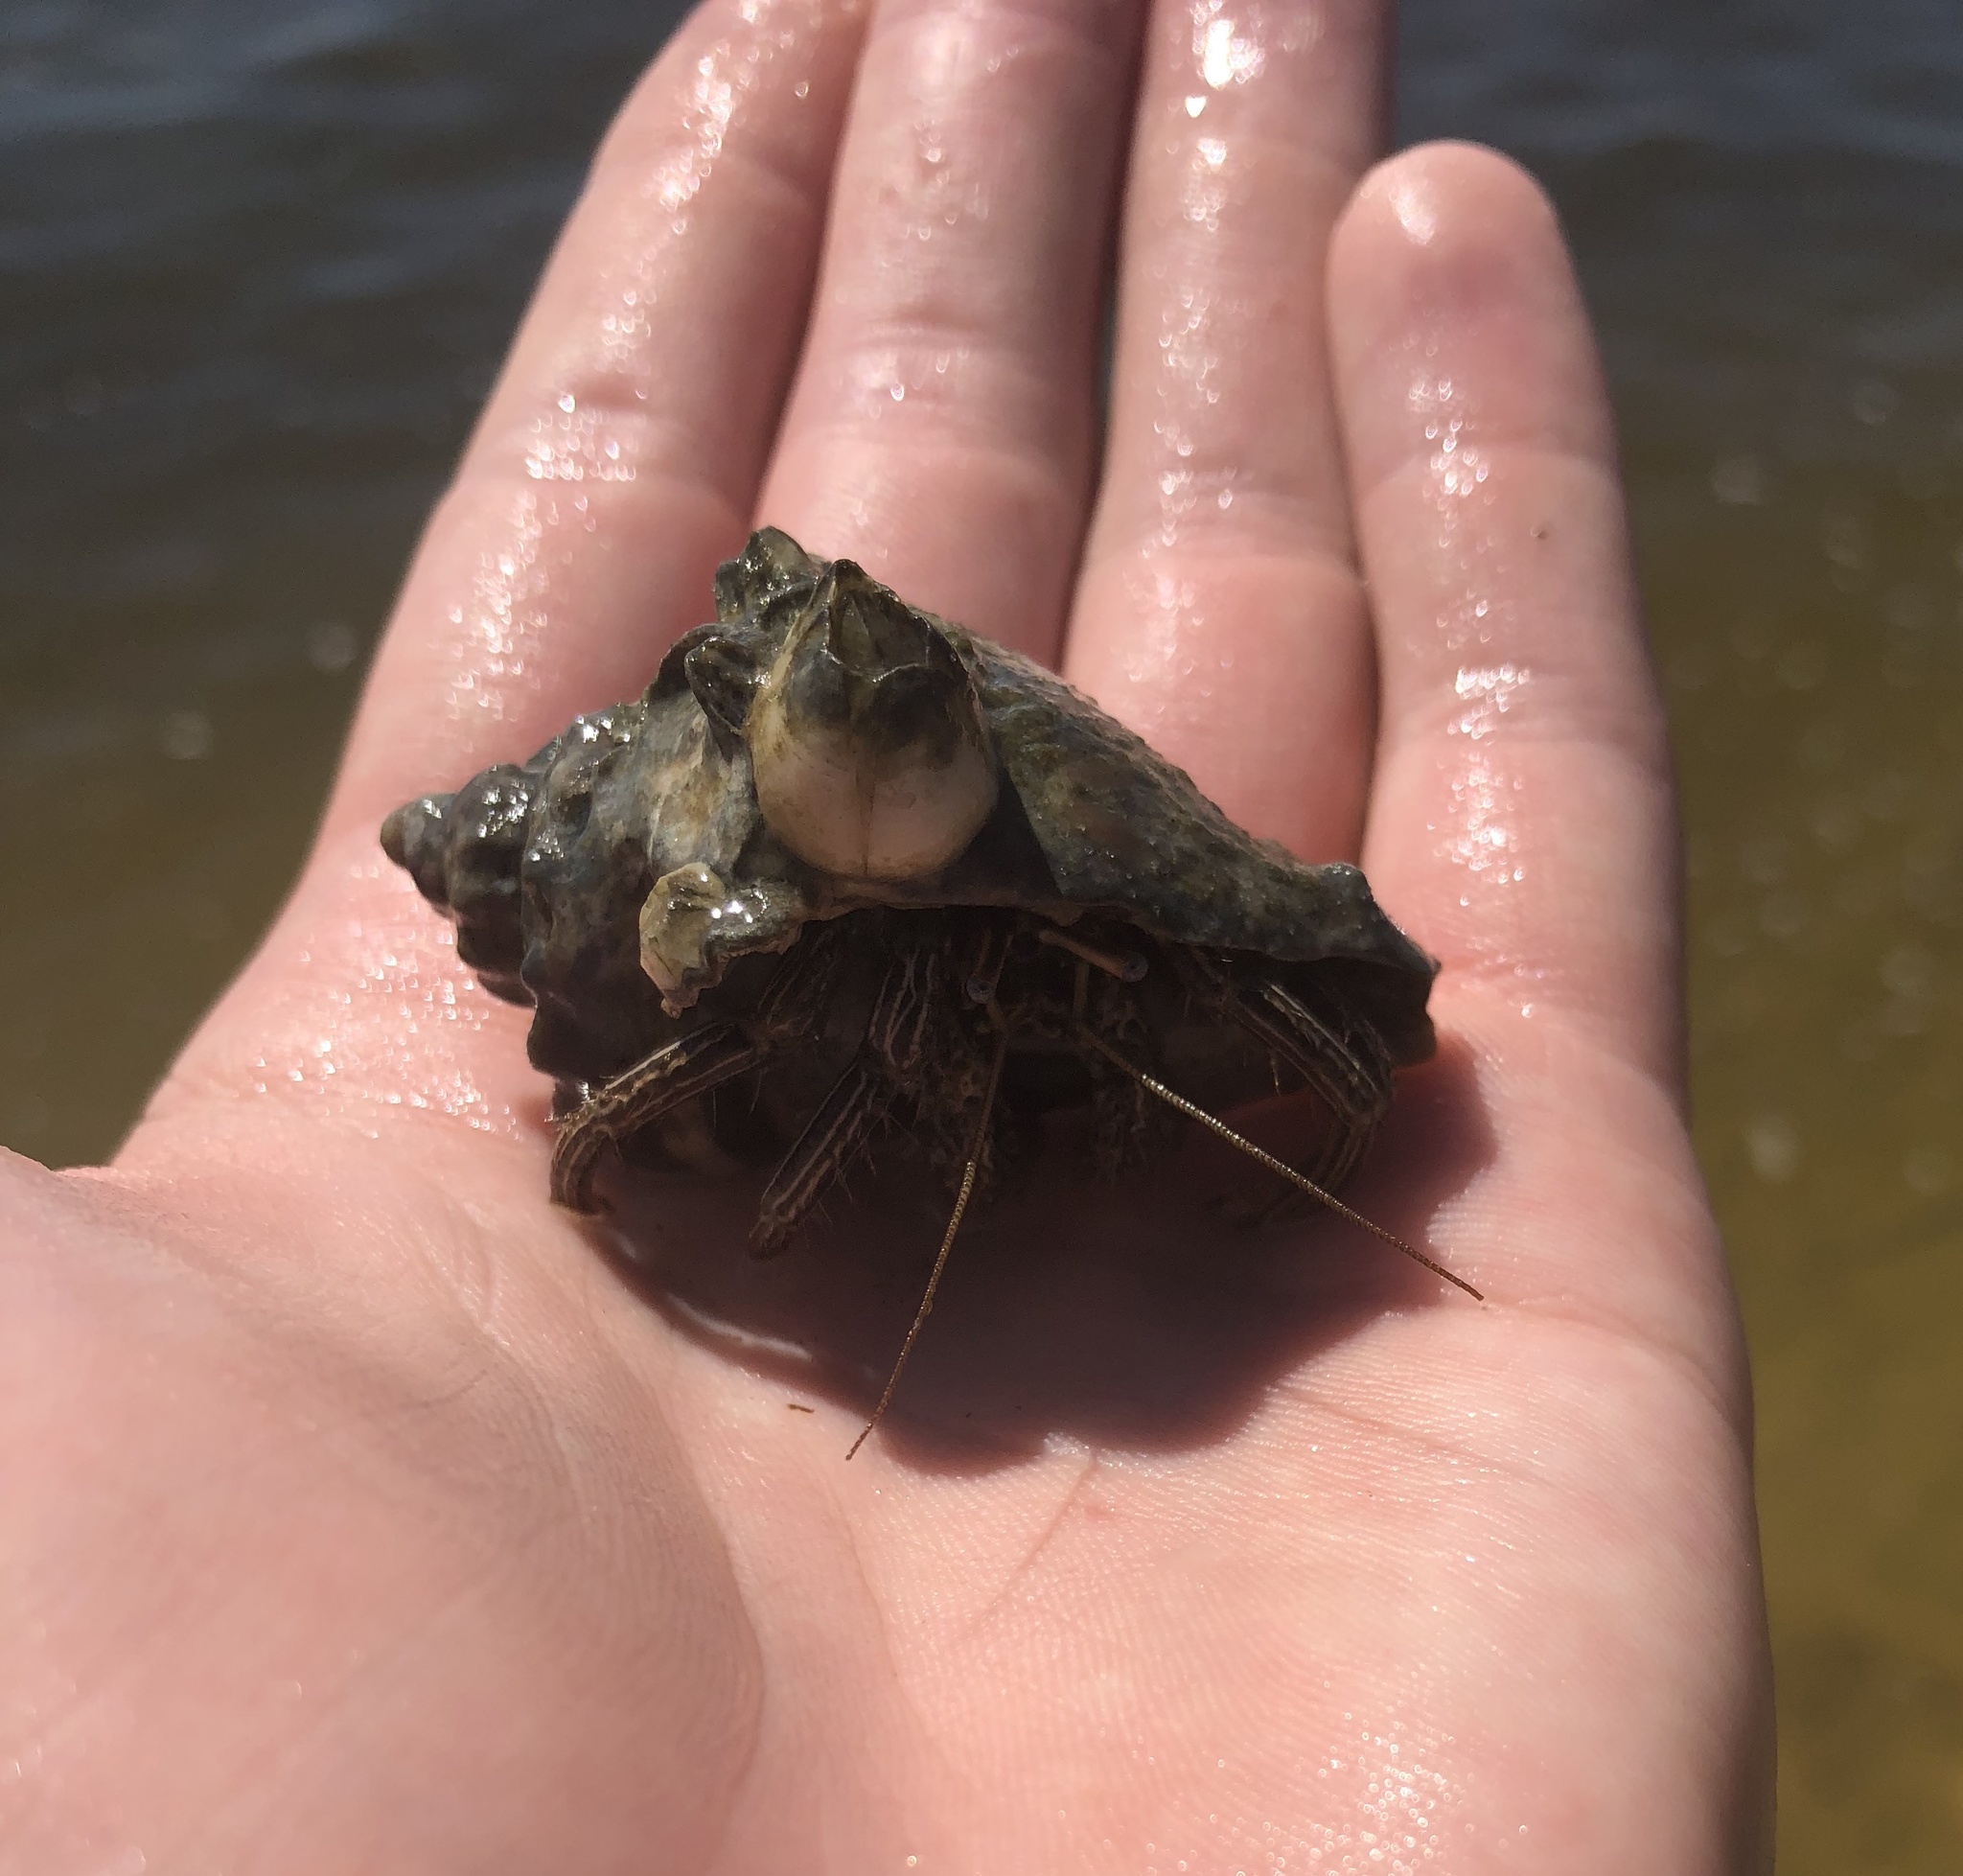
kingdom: Animalia
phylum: Arthropoda
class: Malacostraca
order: Decapoda
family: Diogenidae
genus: Clibanarius
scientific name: Clibanarius vittatus
